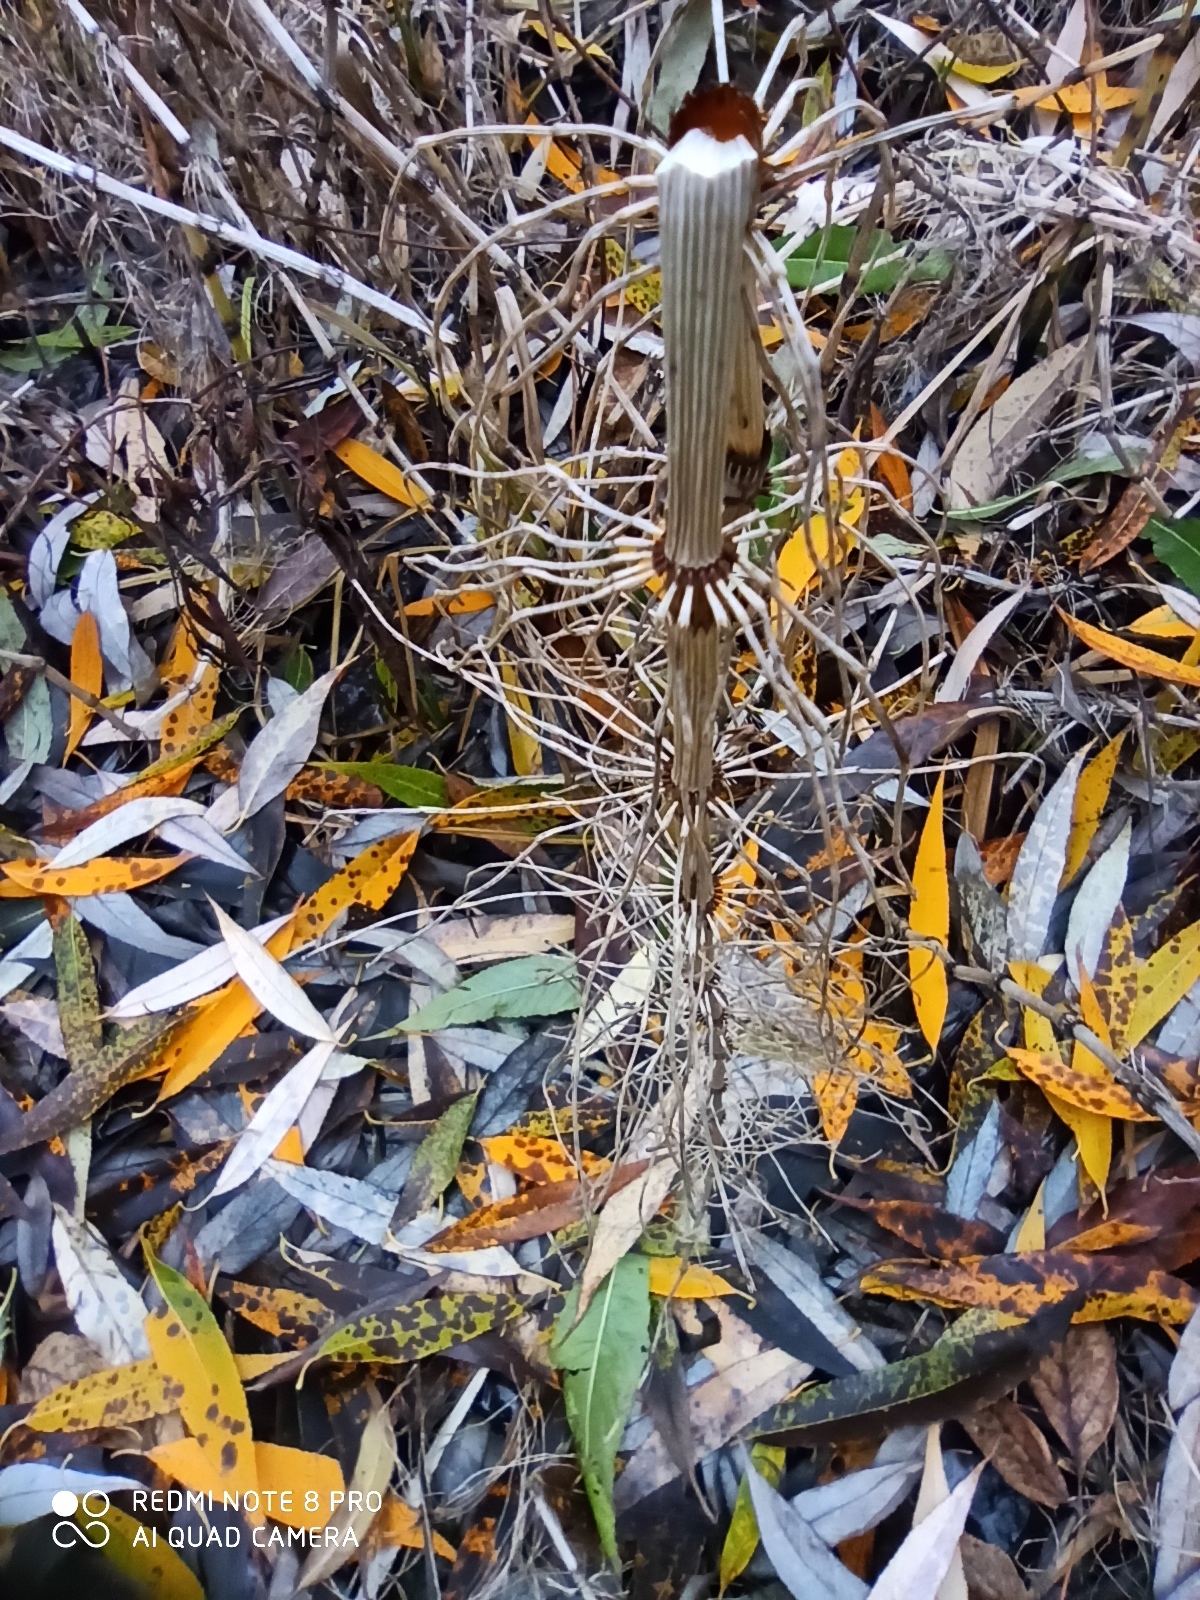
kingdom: Plantae
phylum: Tracheophyta
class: Polypodiopsida
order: Equisetales
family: Equisetaceae
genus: Equisetum
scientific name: Equisetum fluviatile
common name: Water horsetail
